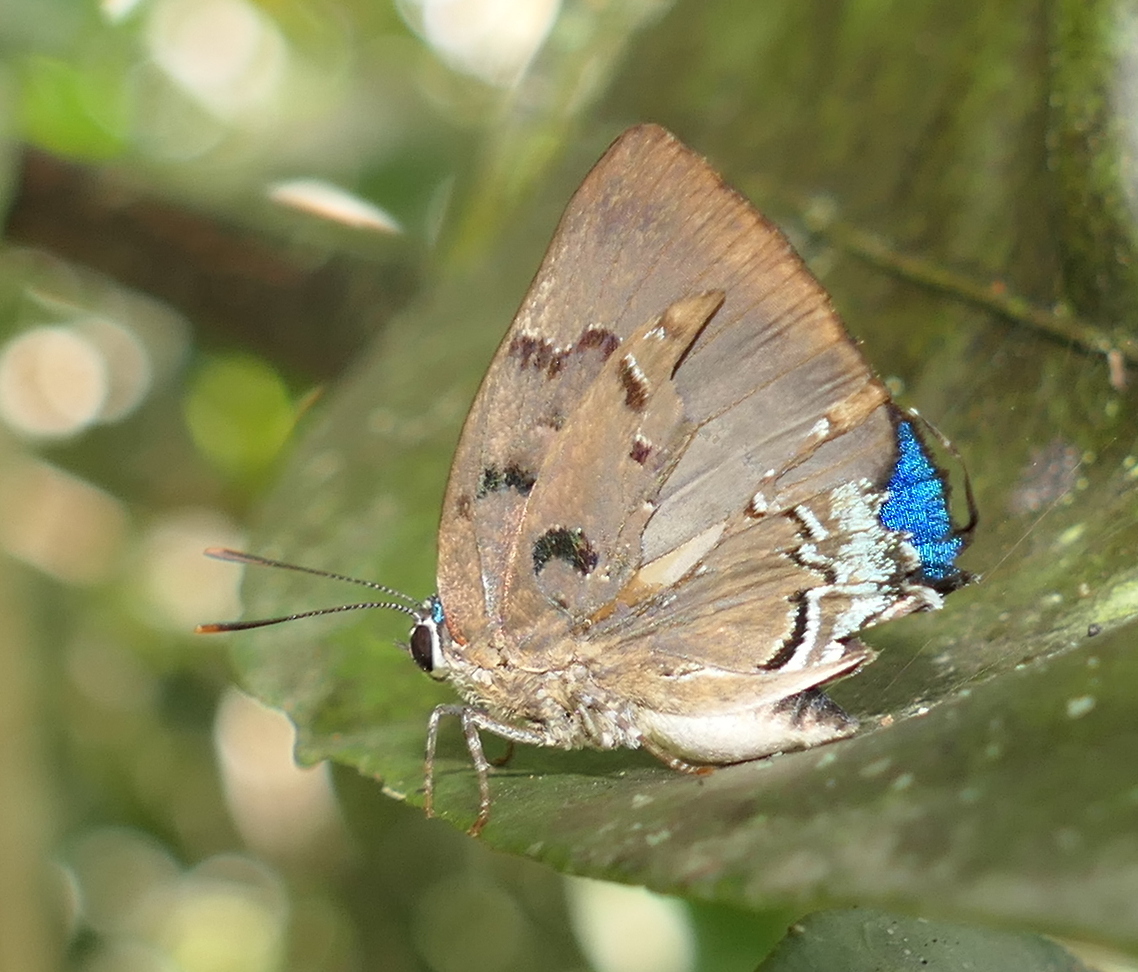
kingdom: Animalia
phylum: Arthropoda
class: Insecta
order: Lepidoptera
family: Lycaenidae
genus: Panthiades
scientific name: Panthiades hebraeus
